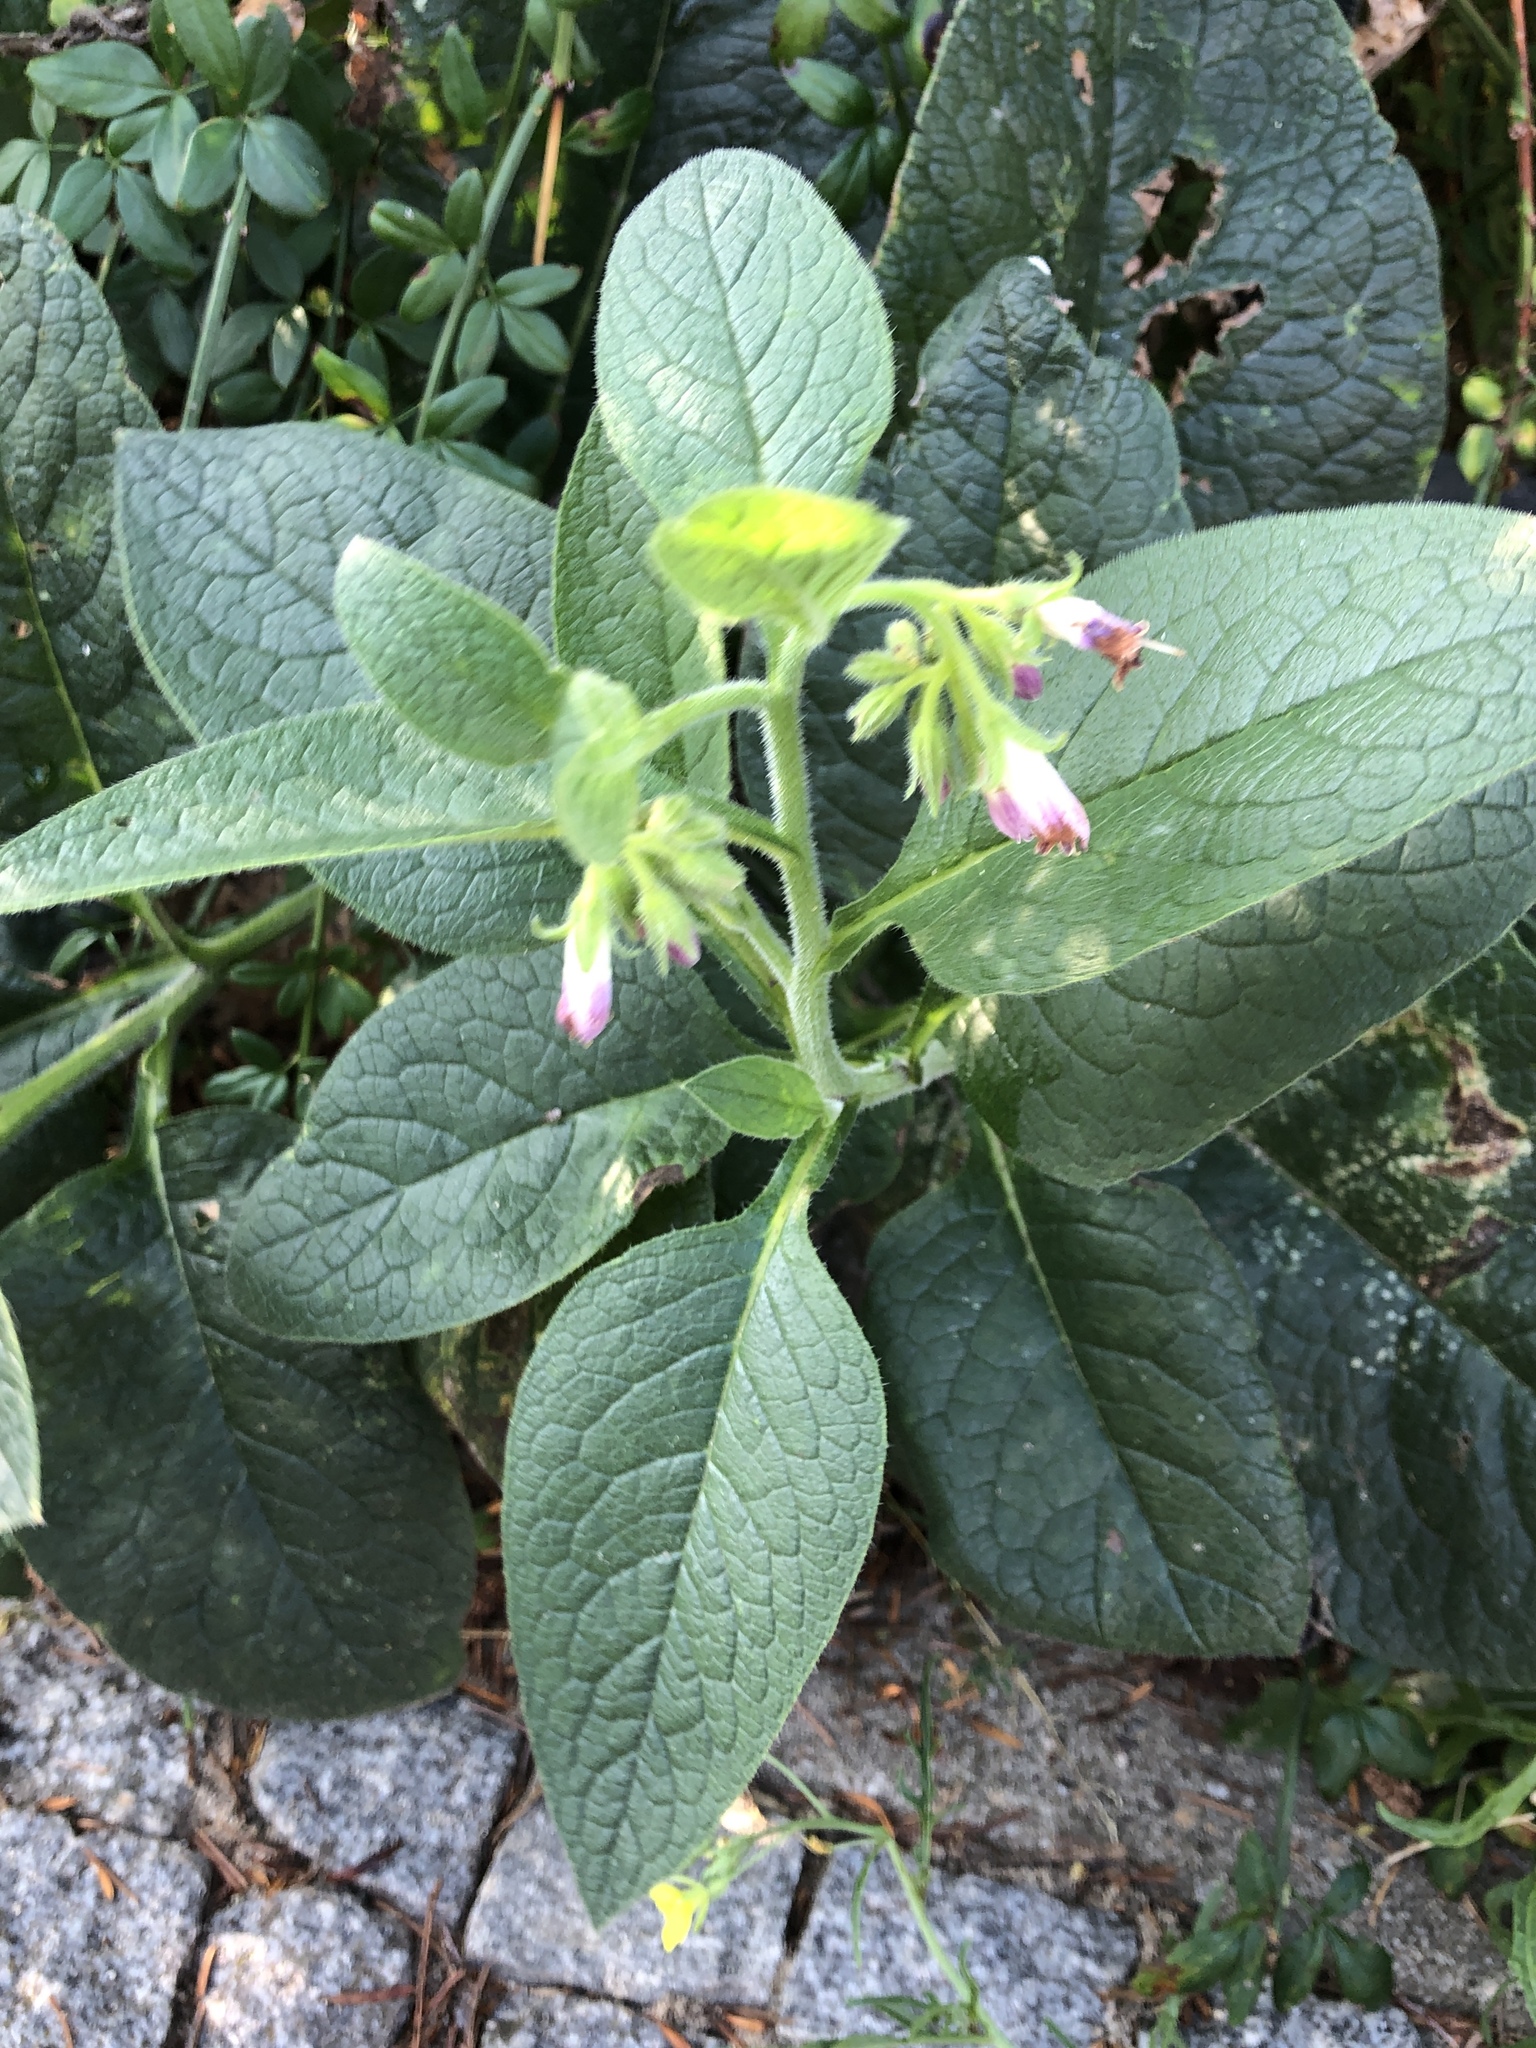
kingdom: Plantae
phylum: Tracheophyta
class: Magnoliopsida
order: Boraginales
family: Boraginaceae
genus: Symphytum
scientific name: Symphytum officinale
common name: Common comfrey
